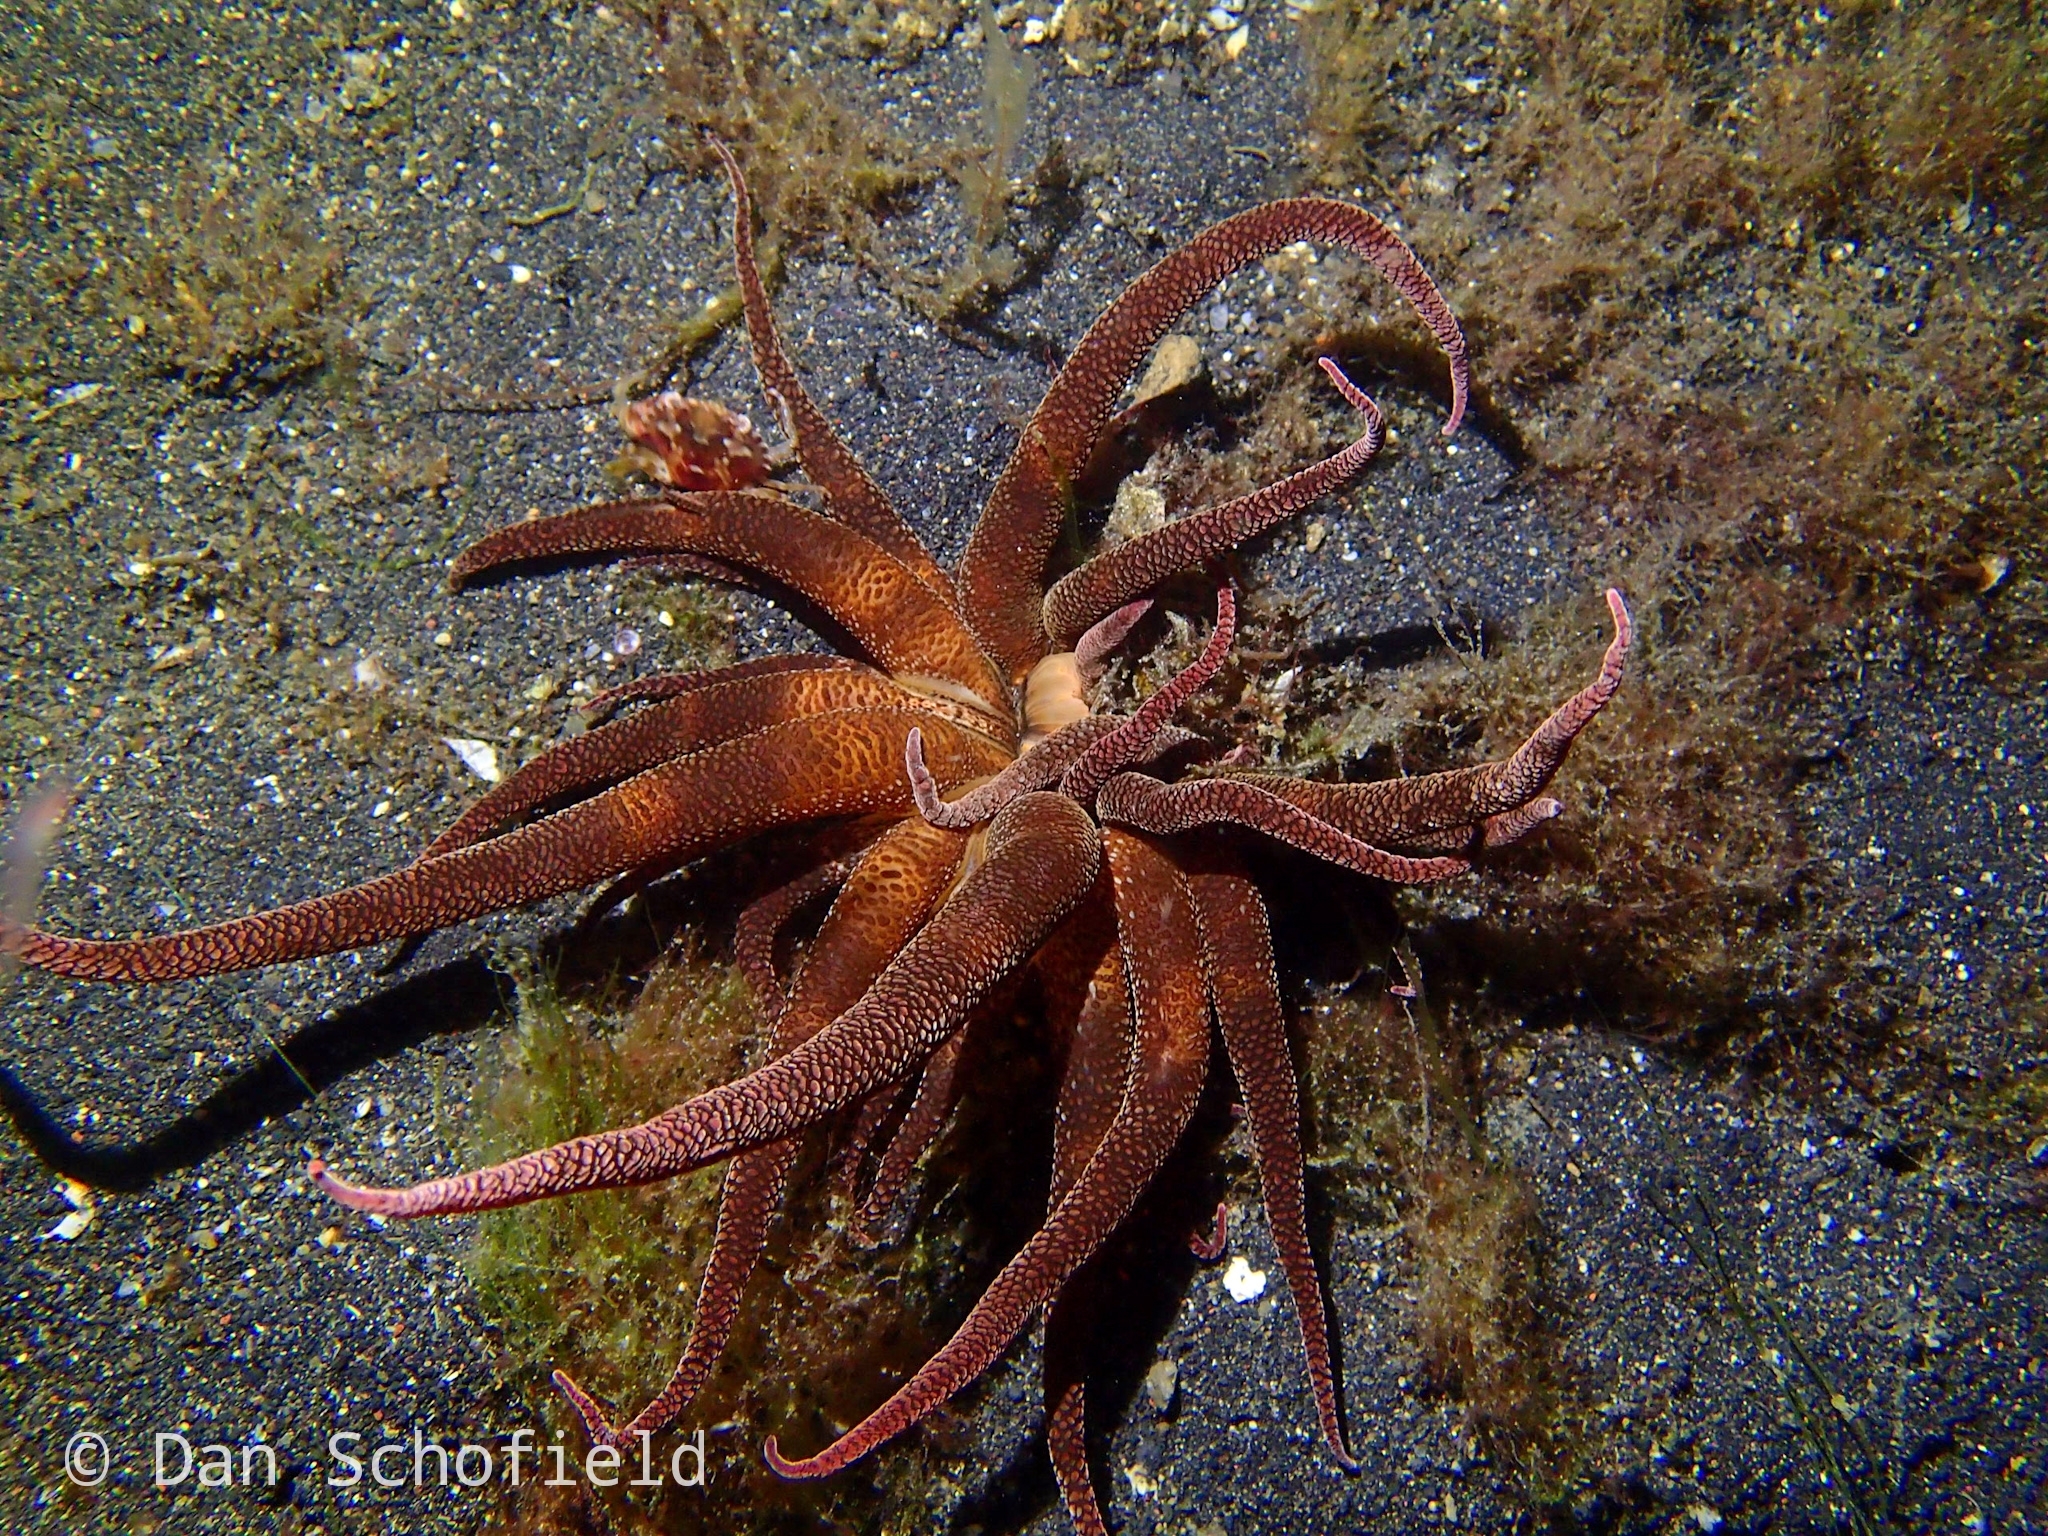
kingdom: Animalia
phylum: Cnidaria
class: Anthozoa
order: Actiniaria
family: Actiniidae
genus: Condylactis
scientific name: Condylactis aspera
